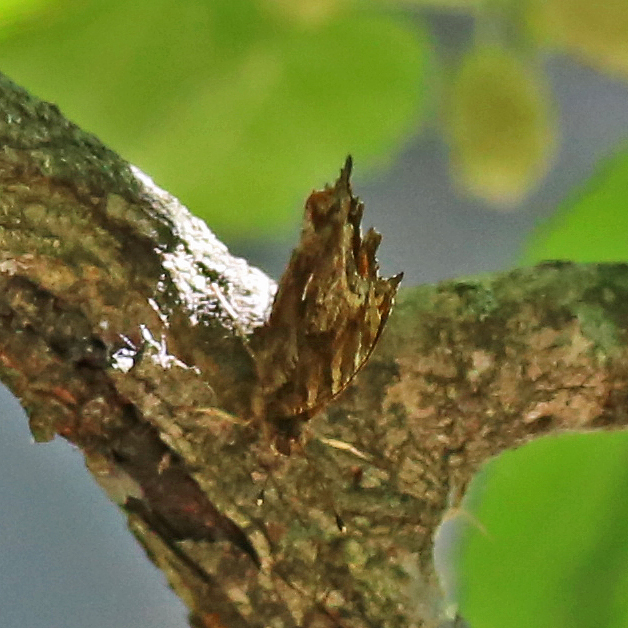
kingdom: Animalia
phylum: Arthropoda
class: Insecta
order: Lepidoptera
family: Nymphalidae
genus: Polygonia
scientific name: Polygonia comma
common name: Eastern comma
